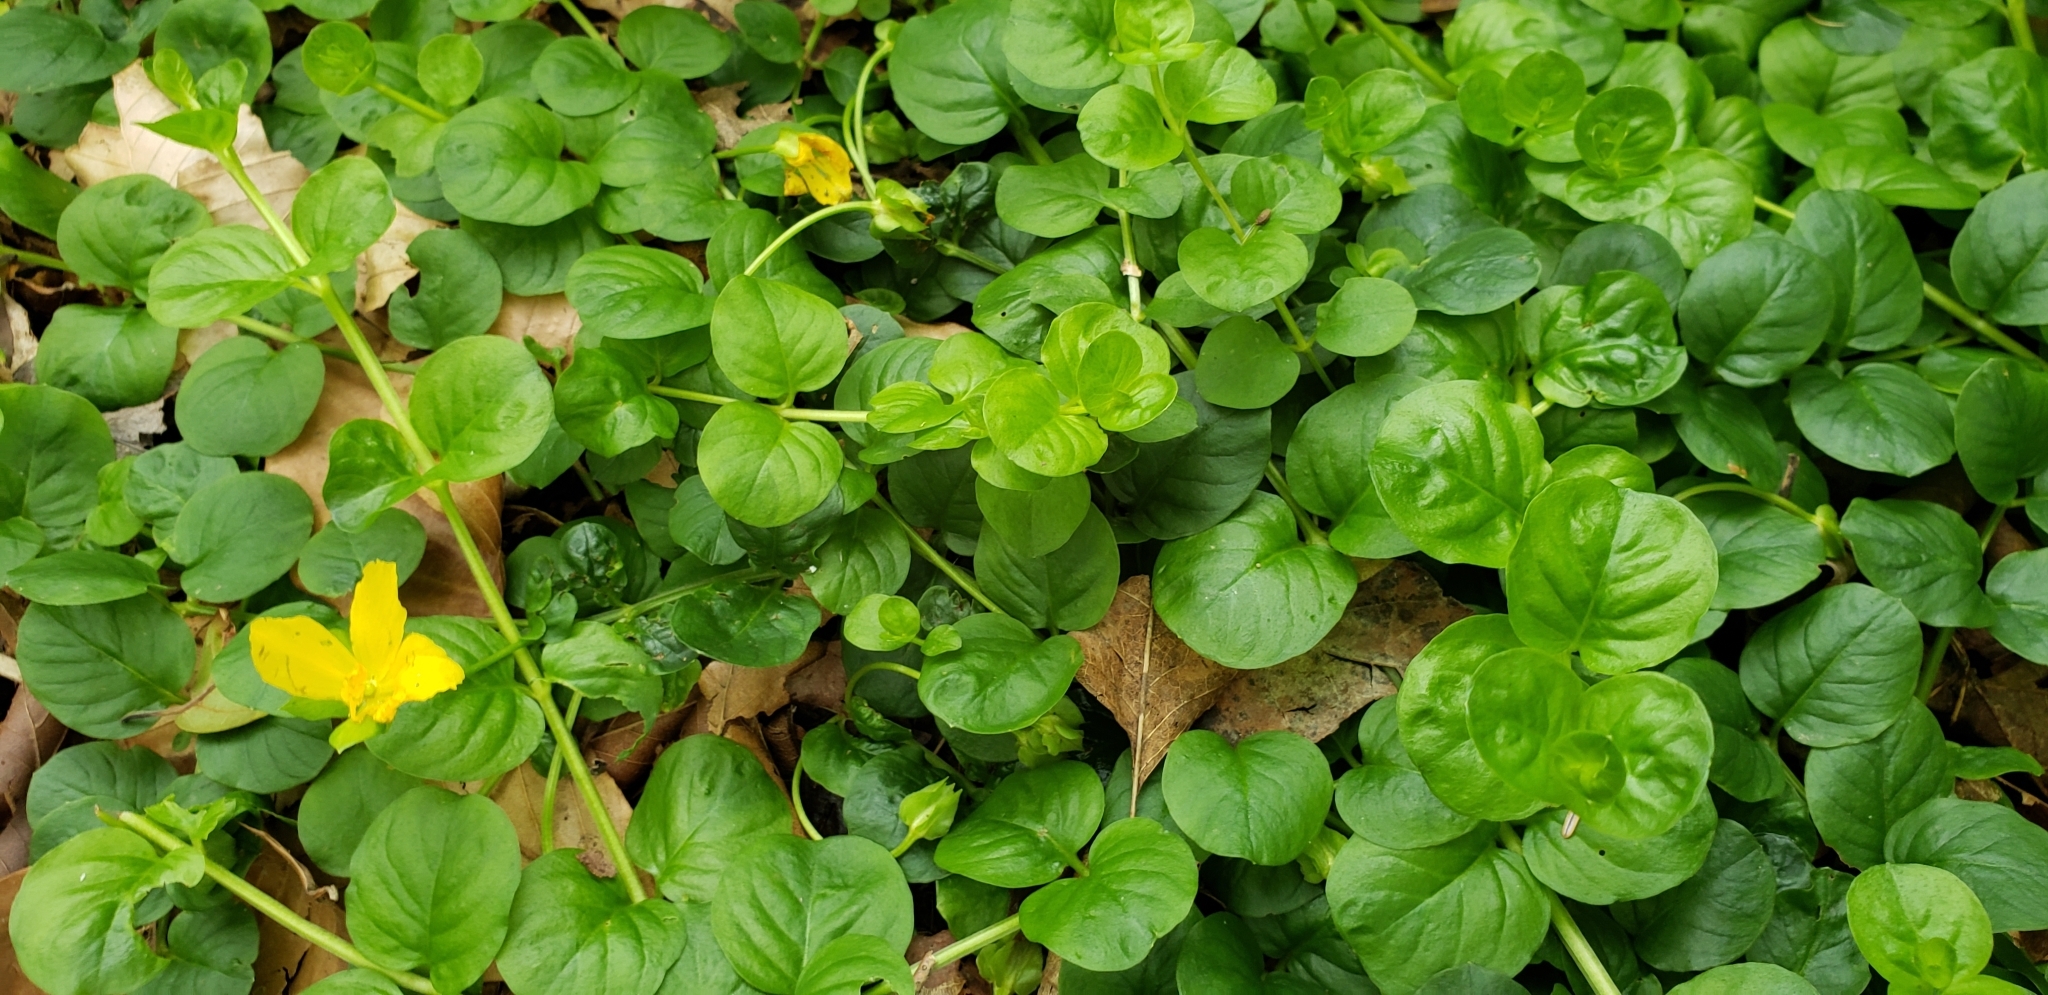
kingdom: Plantae
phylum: Tracheophyta
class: Magnoliopsida
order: Ericales
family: Primulaceae
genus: Lysimachia
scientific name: Lysimachia nummularia
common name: Moneywort
